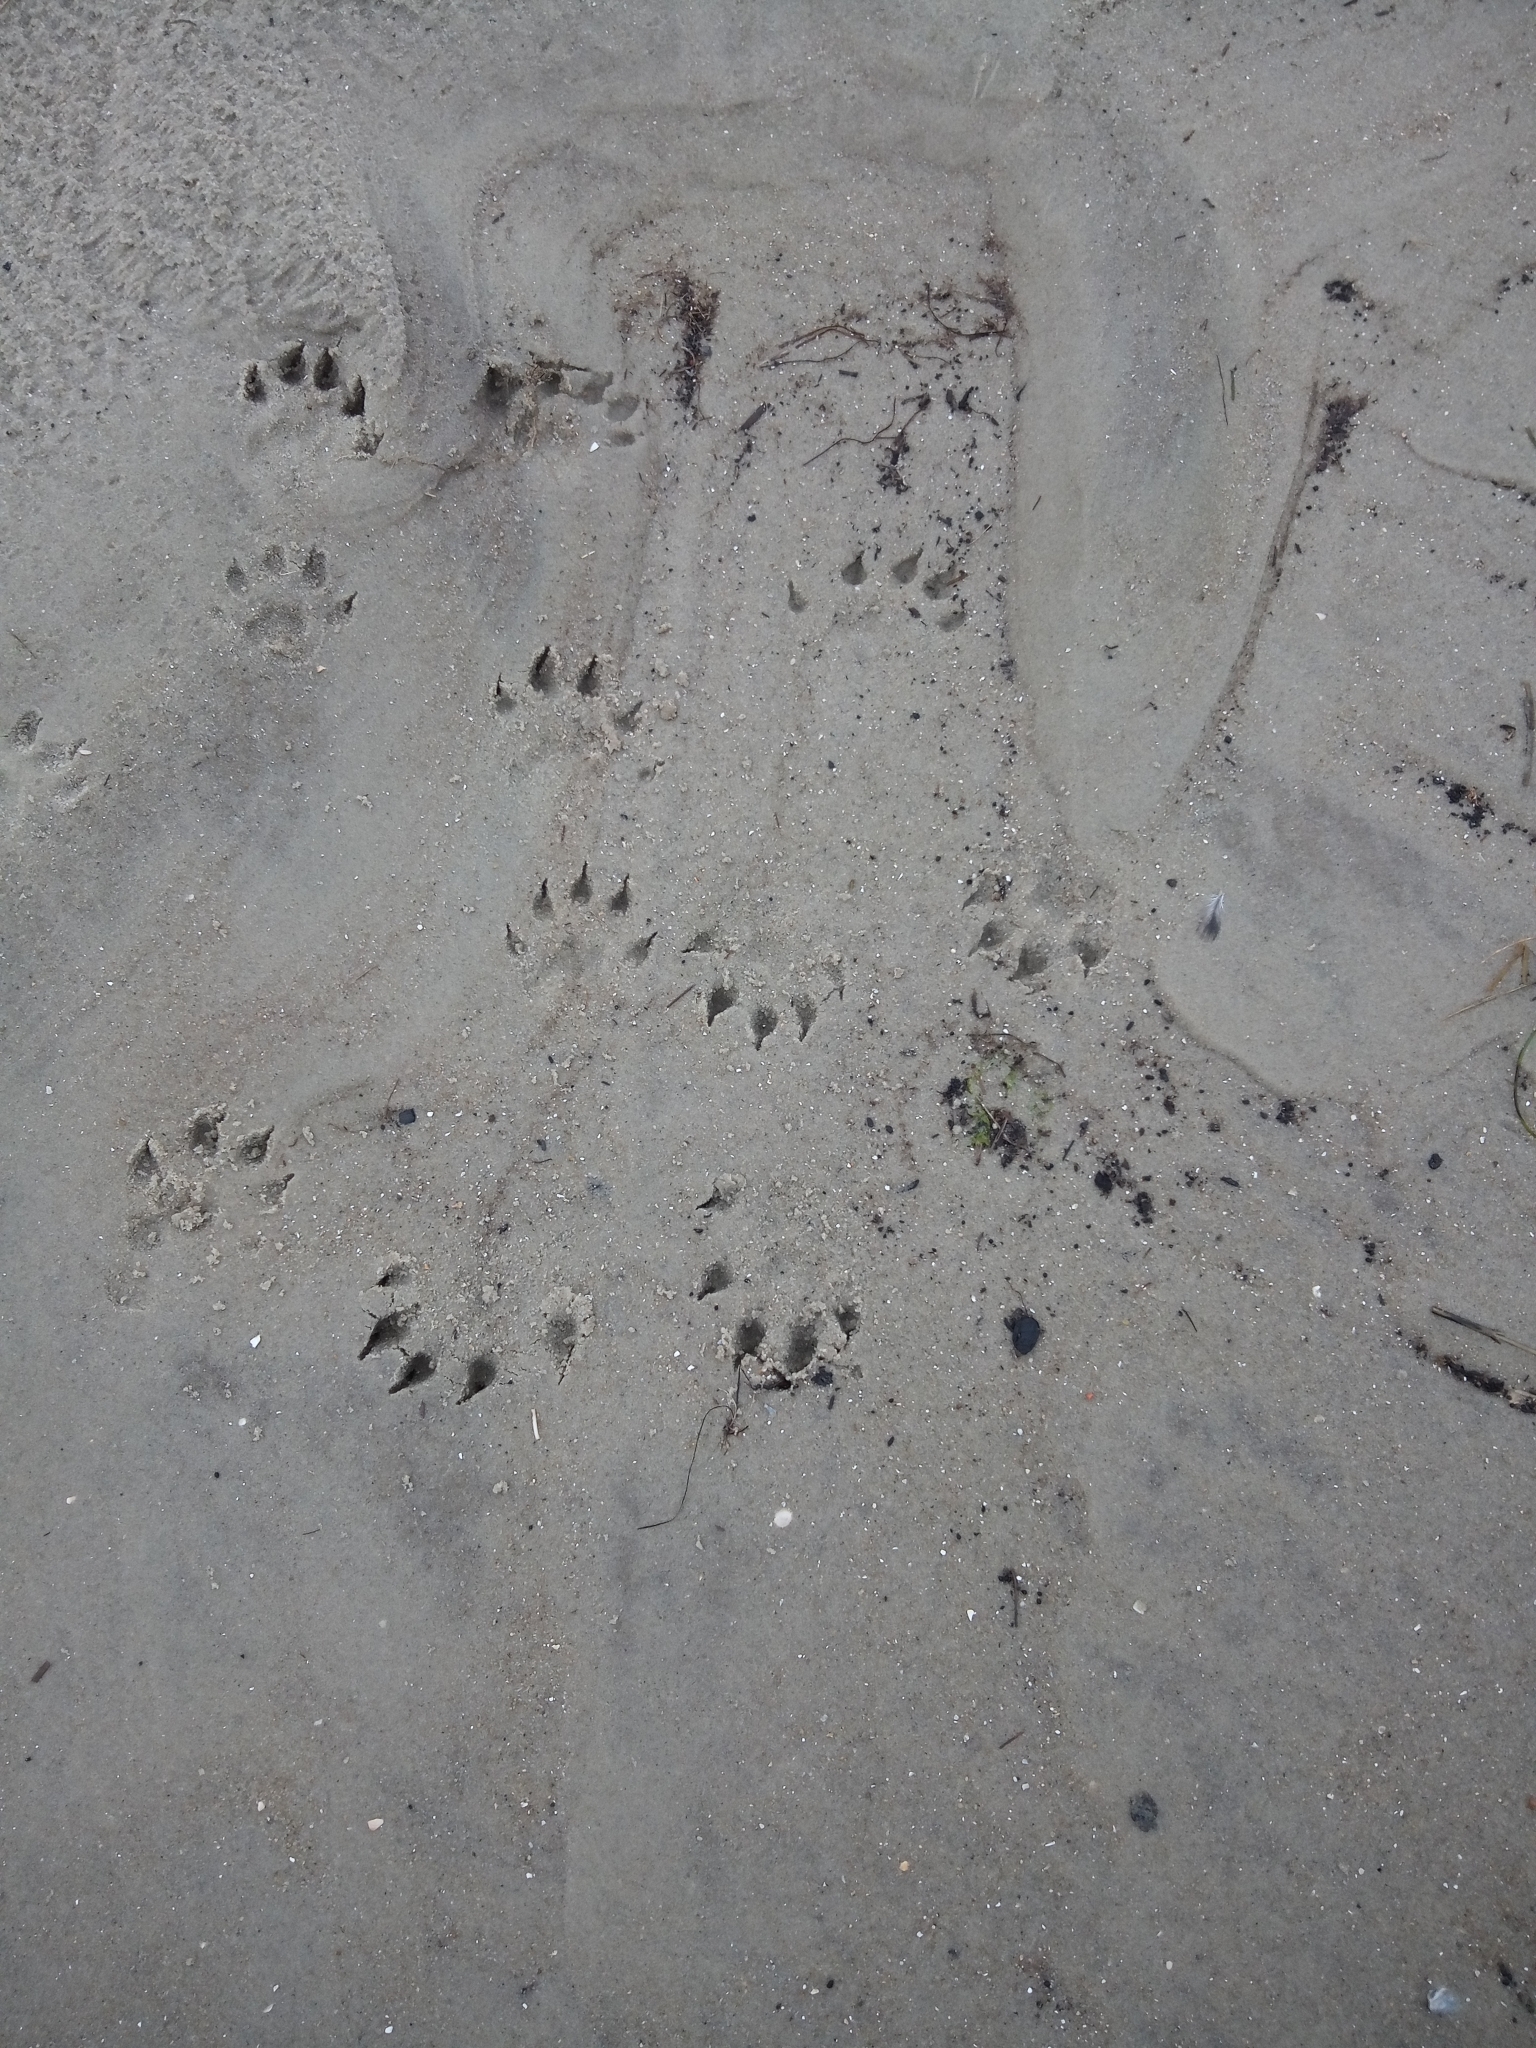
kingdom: Animalia
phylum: Chordata
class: Mammalia
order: Carnivora
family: Mustelidae
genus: Lontra
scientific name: Lontra canadensis
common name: North american river otter
